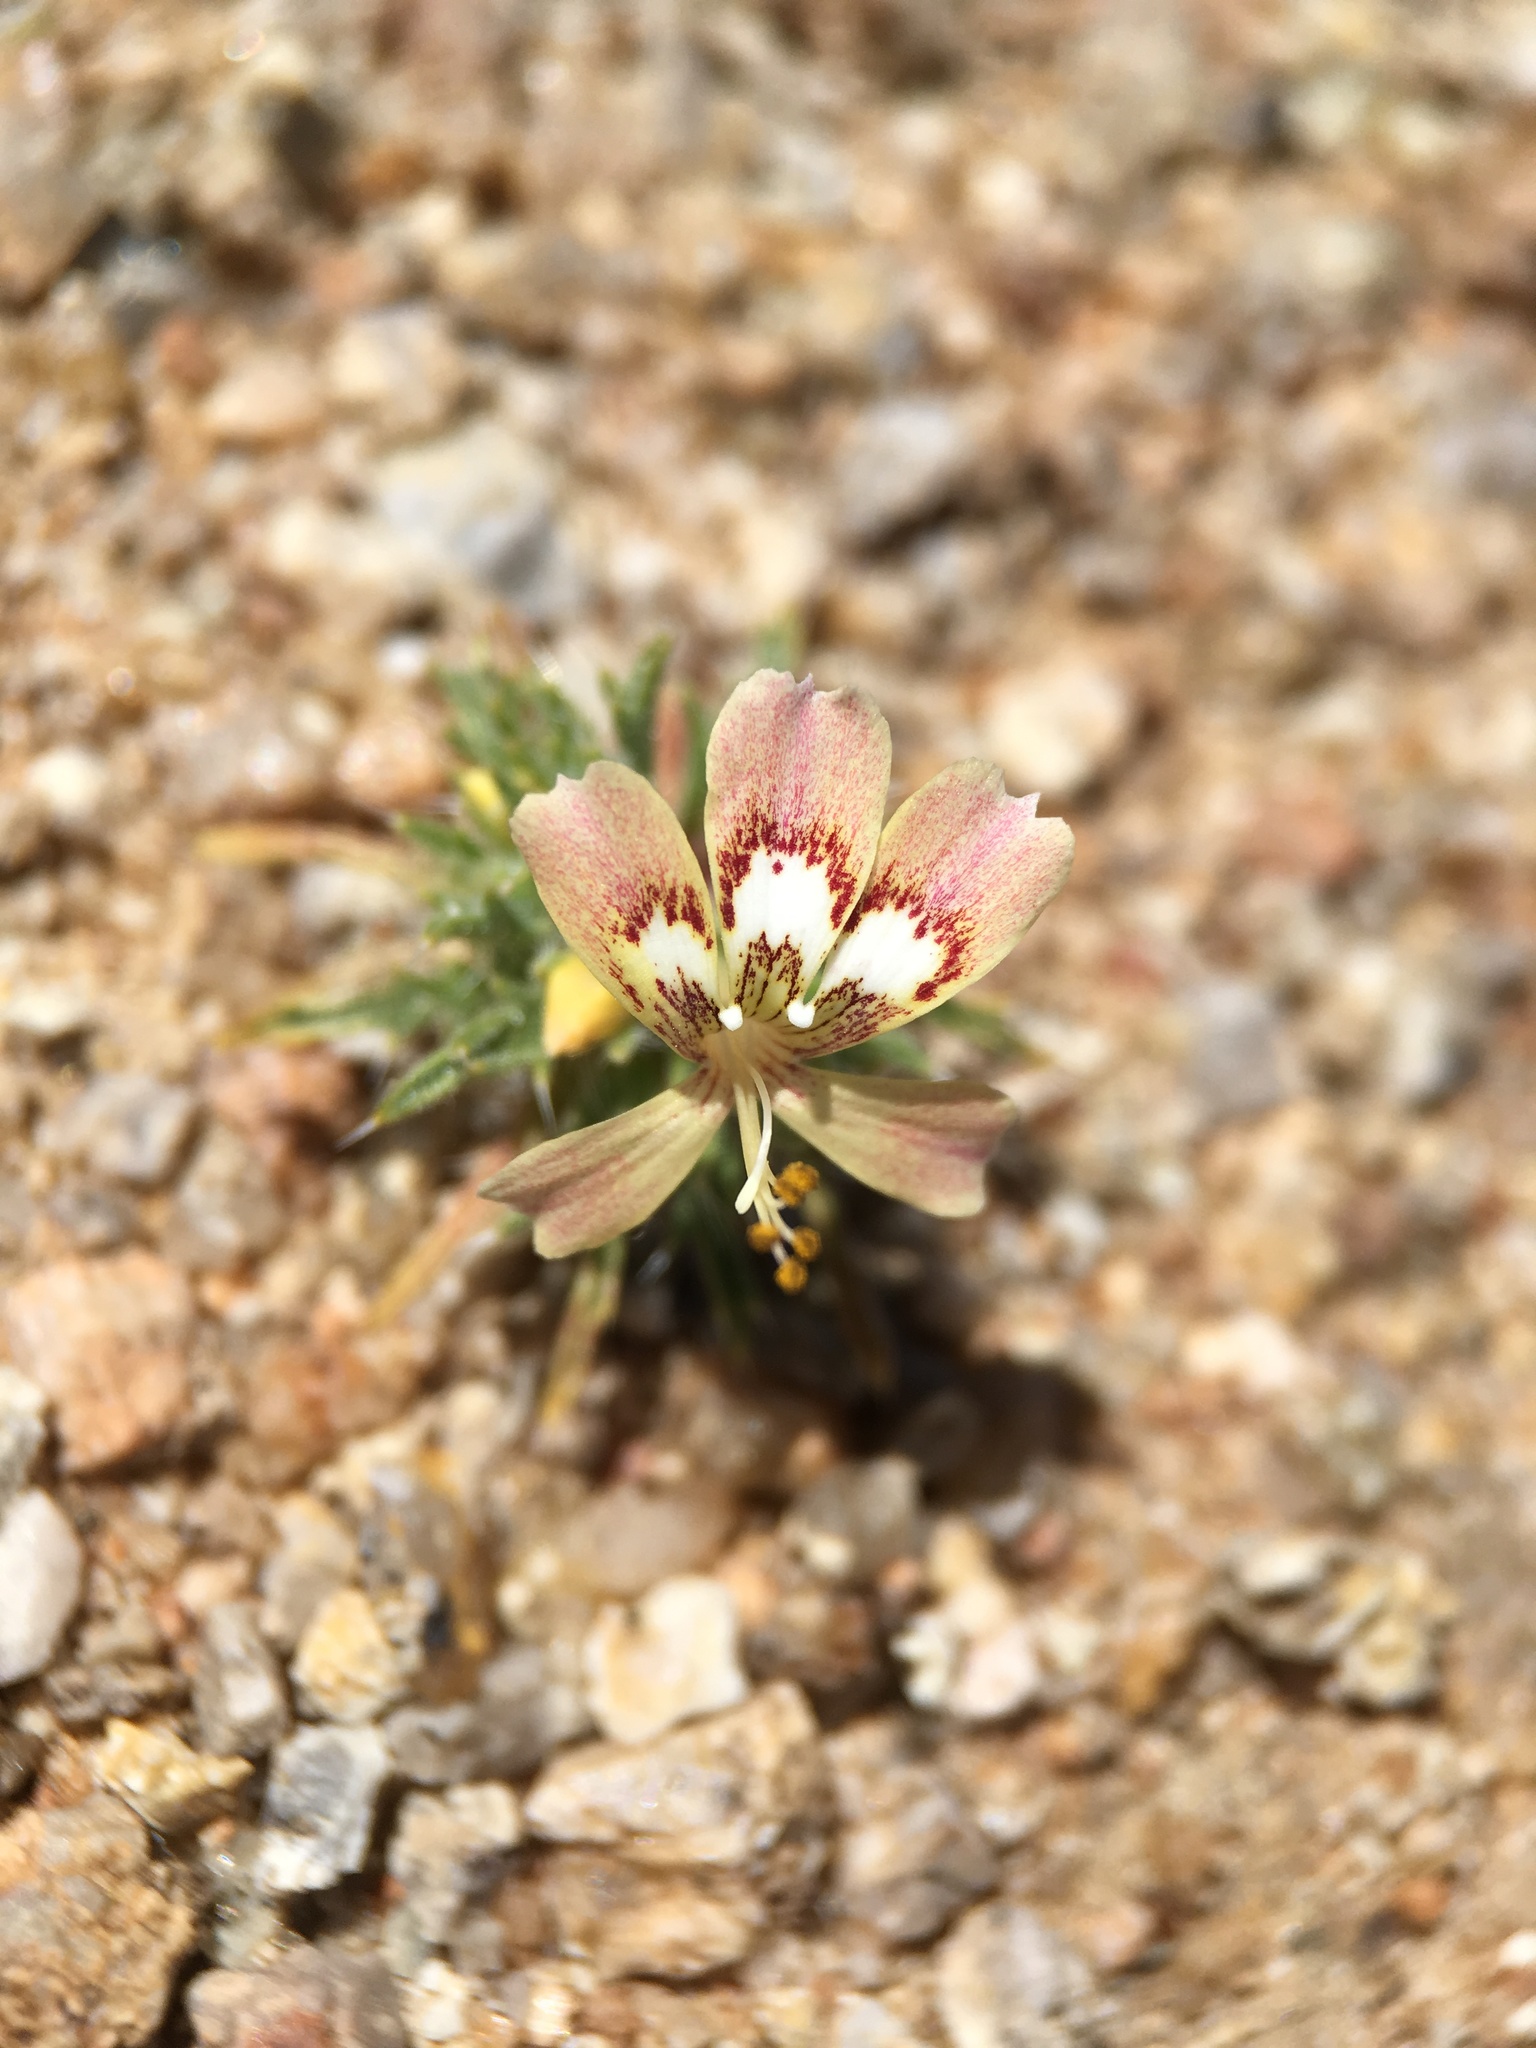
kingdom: Plantae
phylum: Tracheophyta
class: Magnoliopsida
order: Ericales
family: Polemoniaceae
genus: Loeseliastrum
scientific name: Loeseliastrum matthewsii
